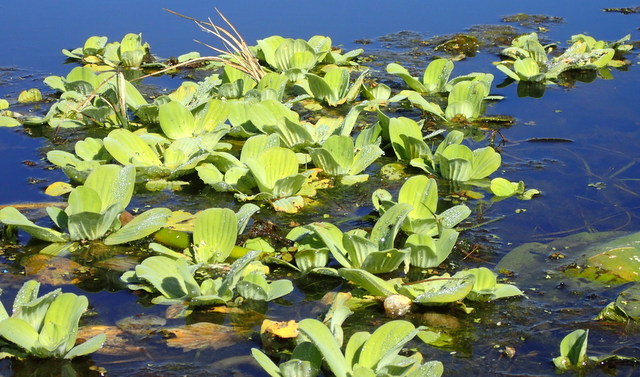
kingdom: Plantae
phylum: Tracheophyta
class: Liliopsida
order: Alismatales
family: Araceae
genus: Pistia
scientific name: Pistia stratiotes
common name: Water lettuce
